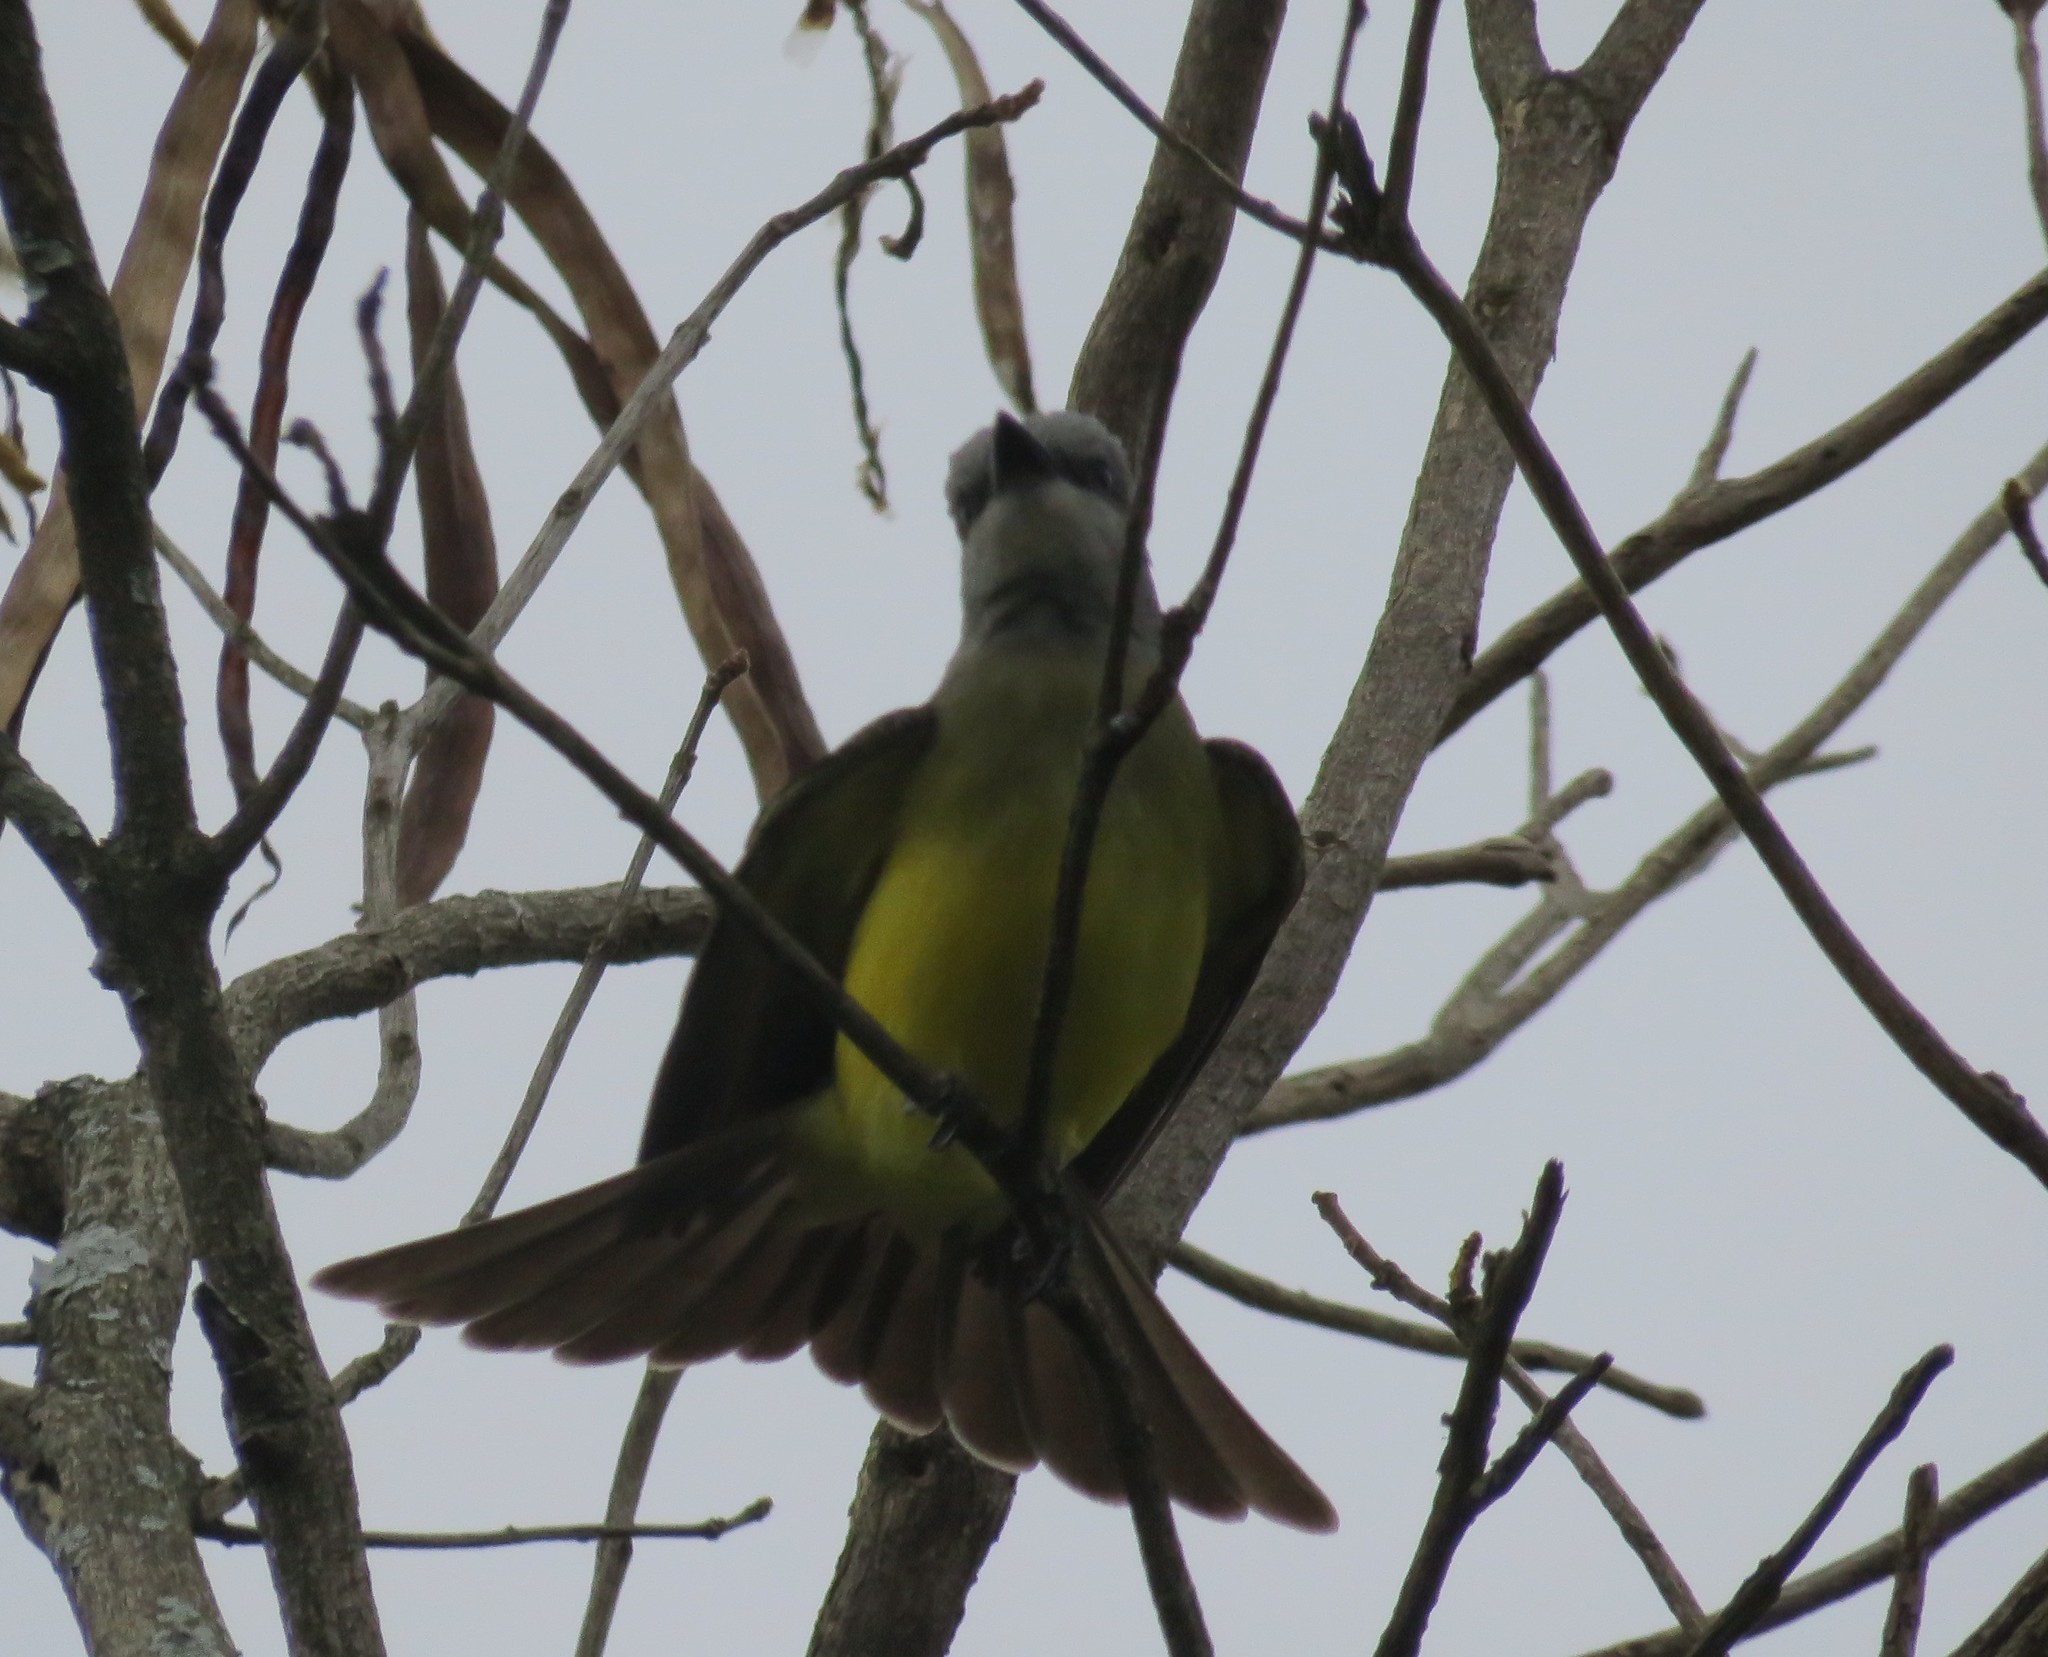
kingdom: Animalia
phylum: Chordata
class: Aves
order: Passeriformes
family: Tyrannidae
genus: Tyrannus
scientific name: Tyrannus melancholicus
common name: Tropical kingbird
